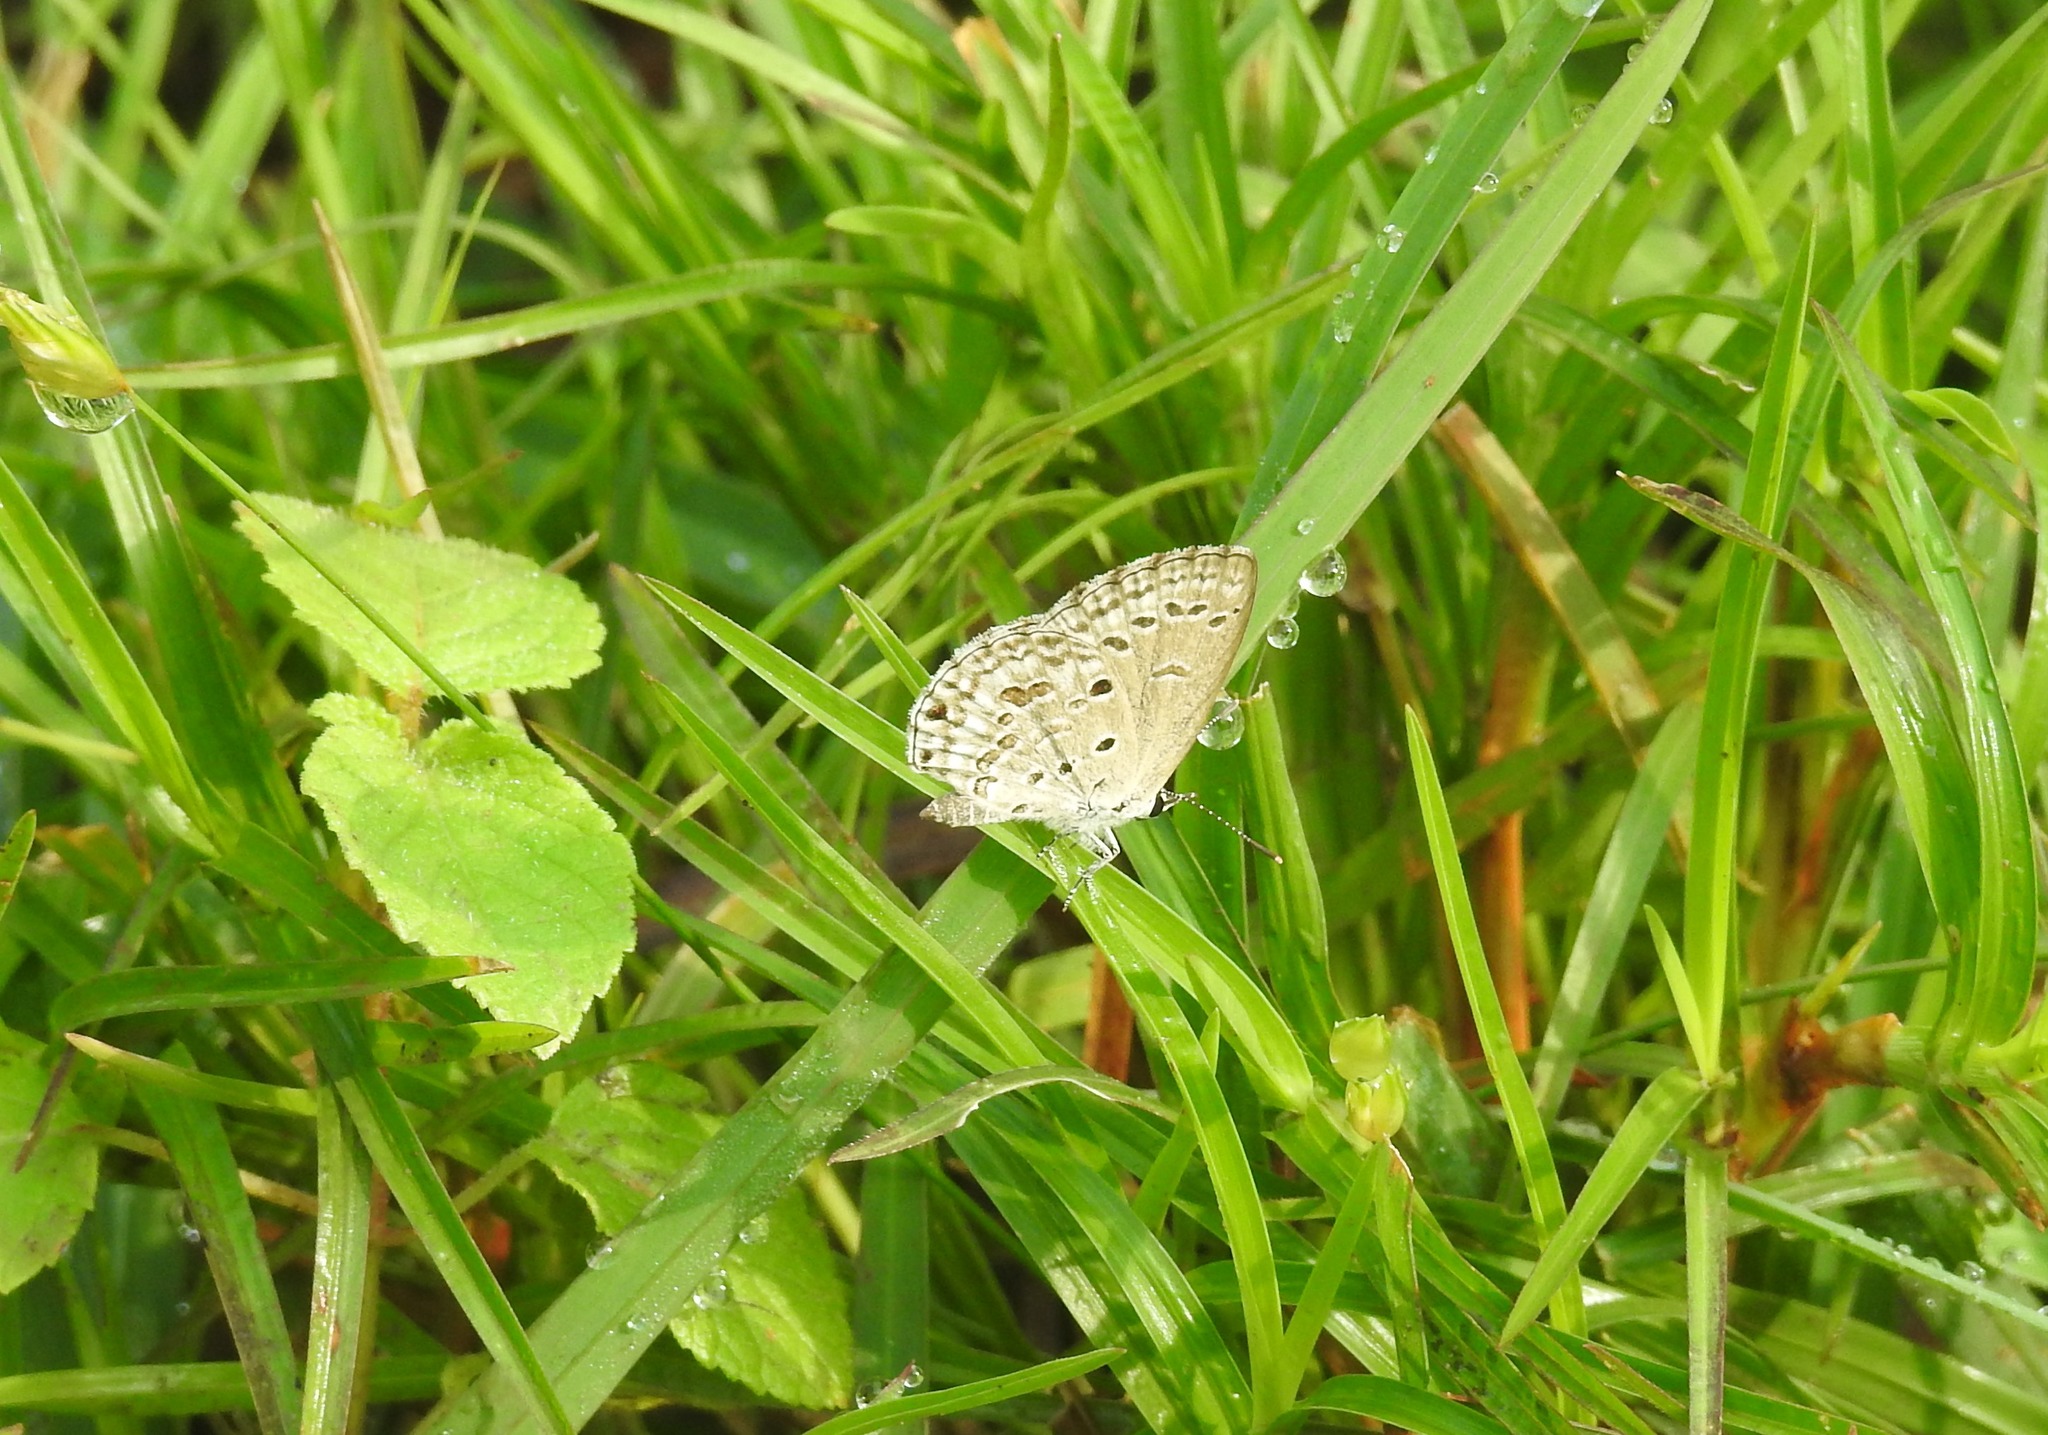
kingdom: Animalia
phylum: Arthropoda
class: Insecta
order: Lepidoptera
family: Lycaenidae
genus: Chilades
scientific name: Chilades laius
